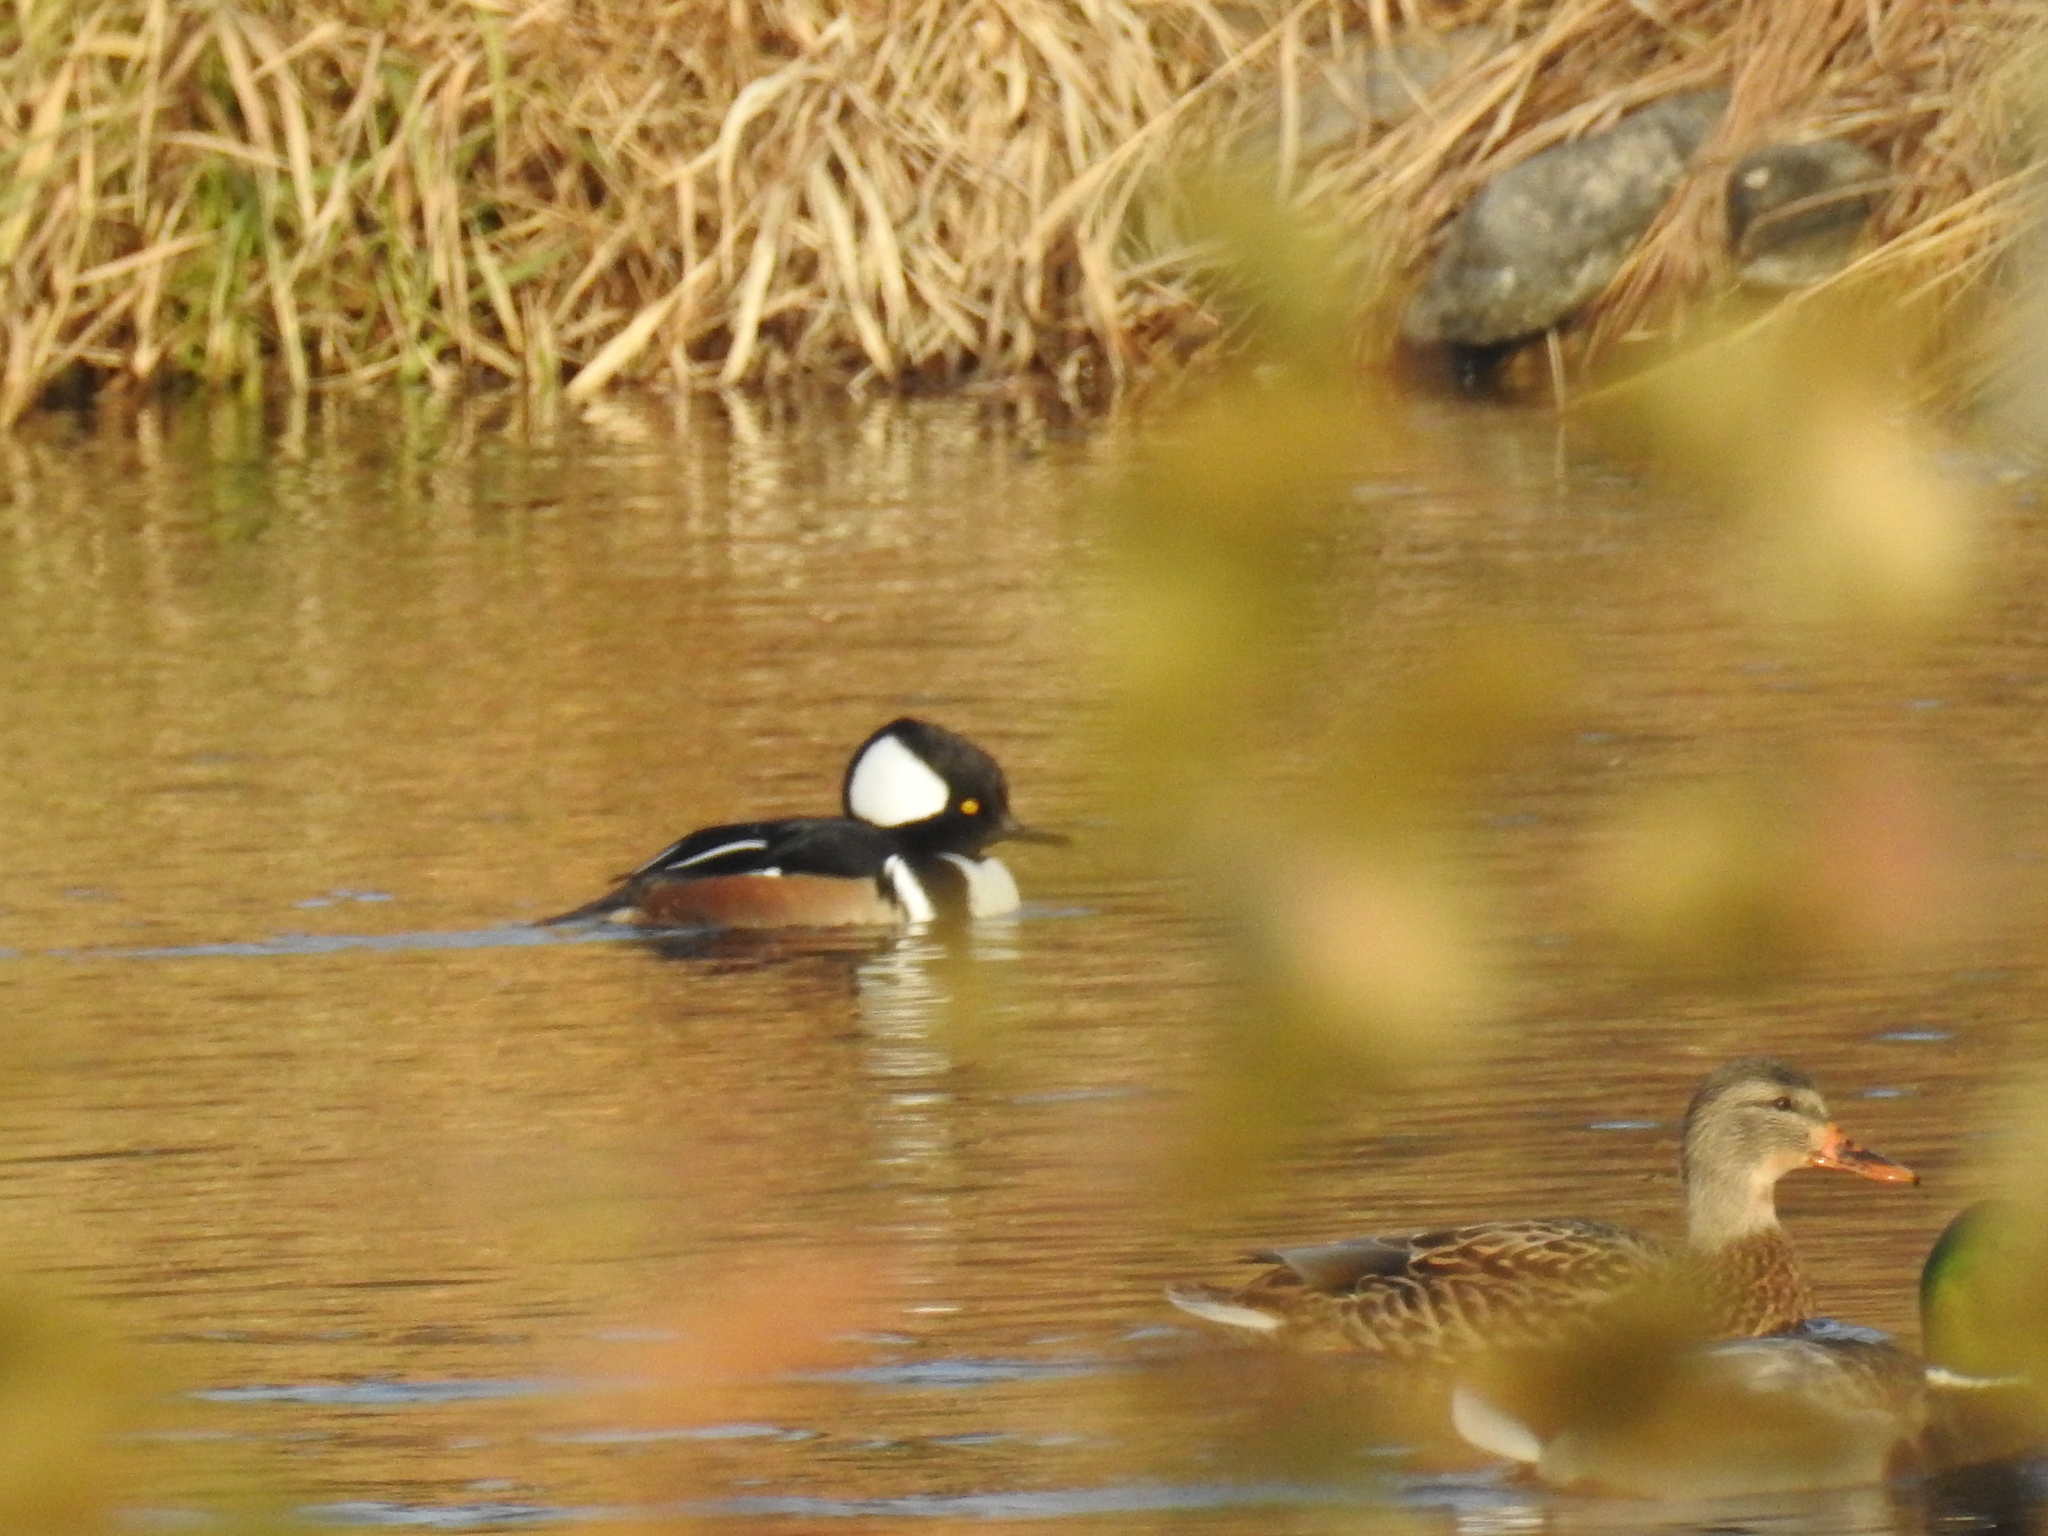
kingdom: Animalia
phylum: Chordata
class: Aves
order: Anseriformes
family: Anatidae
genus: Lophodytes
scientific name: Lophodytes cucullatus
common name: Hooded merganser
